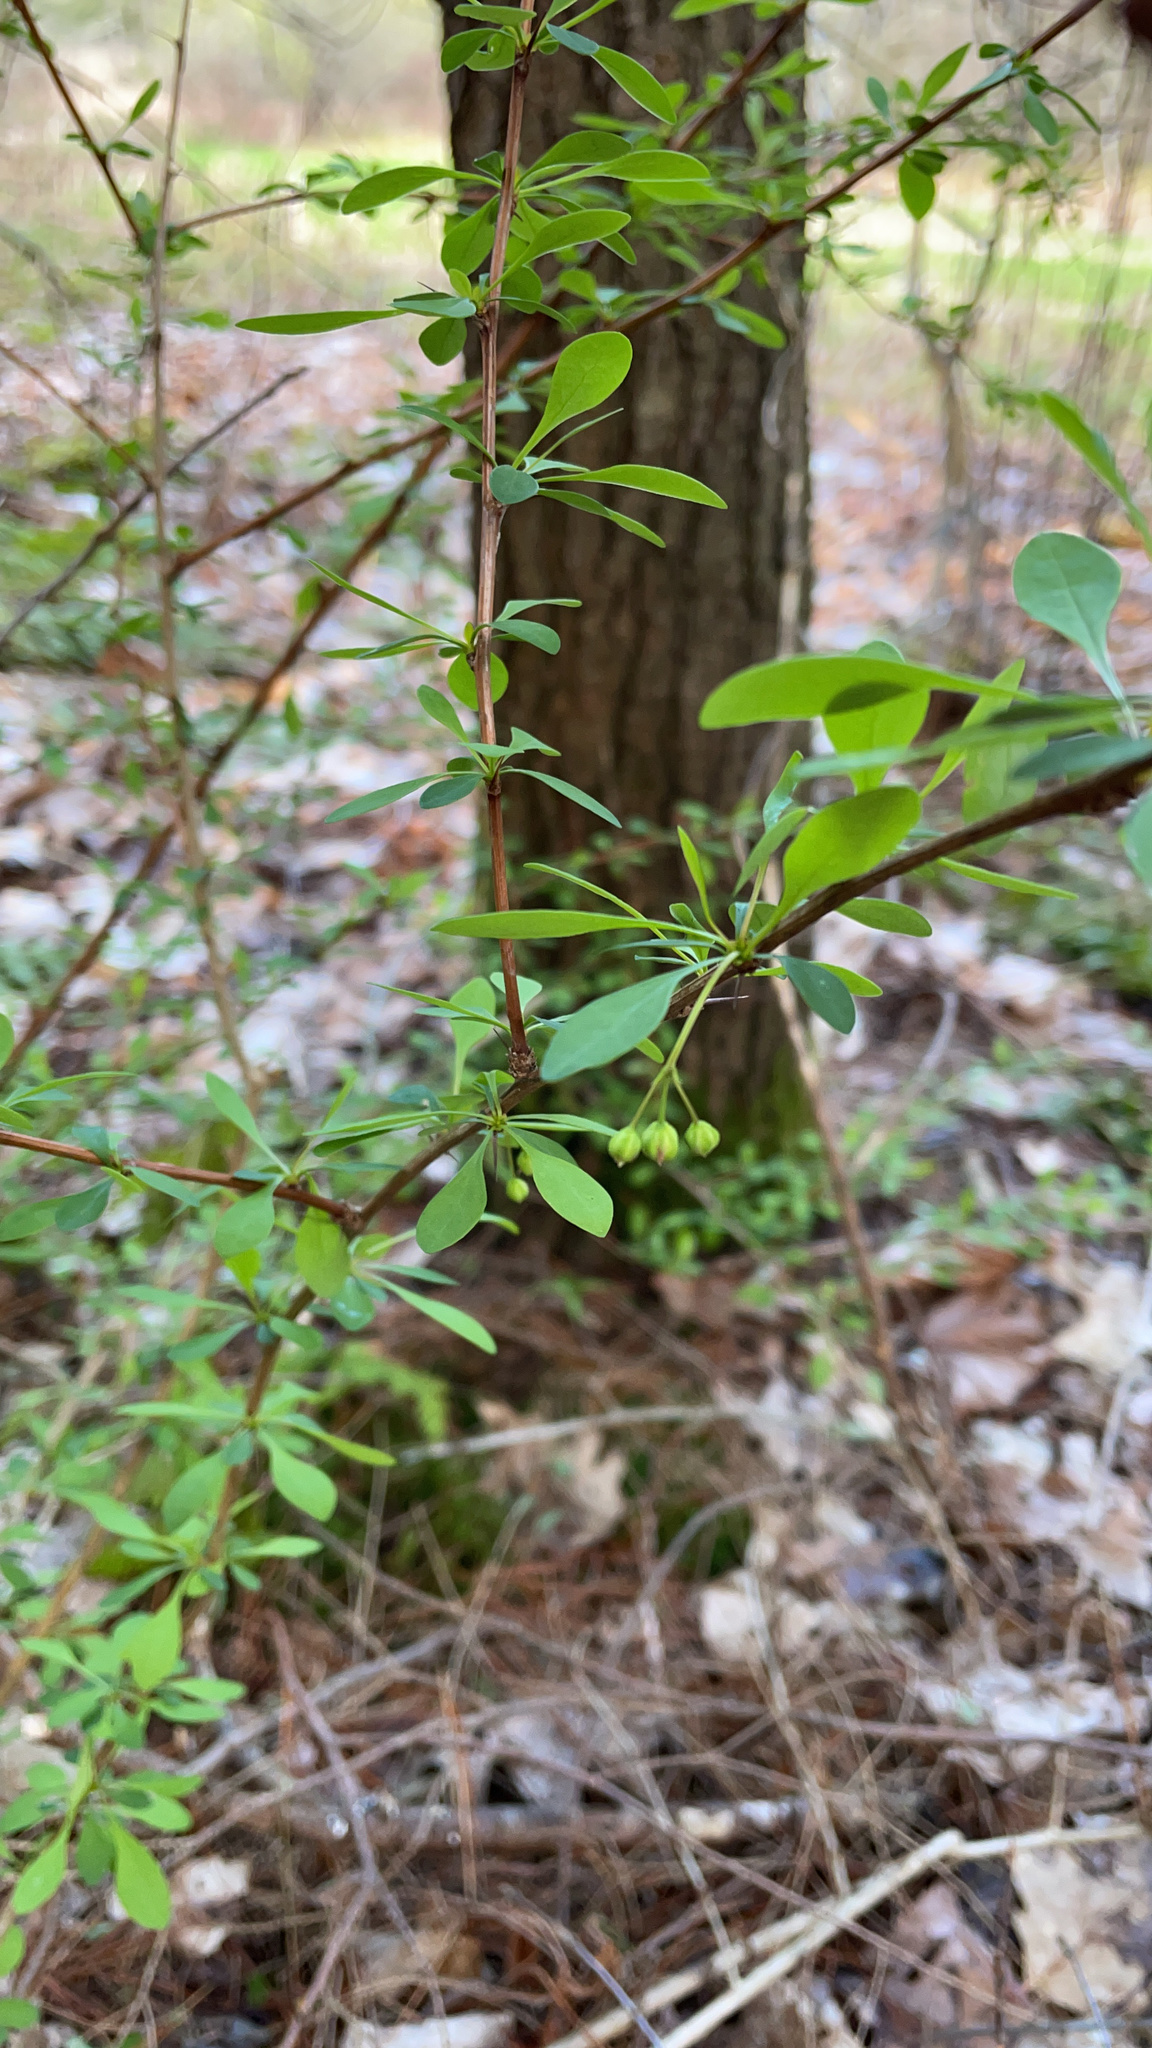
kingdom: Plantae
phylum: Tracheophyta
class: Magnoliopsida
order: Ranunculales
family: Berberidaceae
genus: Berberis
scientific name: Berberis thunbergii
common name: Japanese barberry
